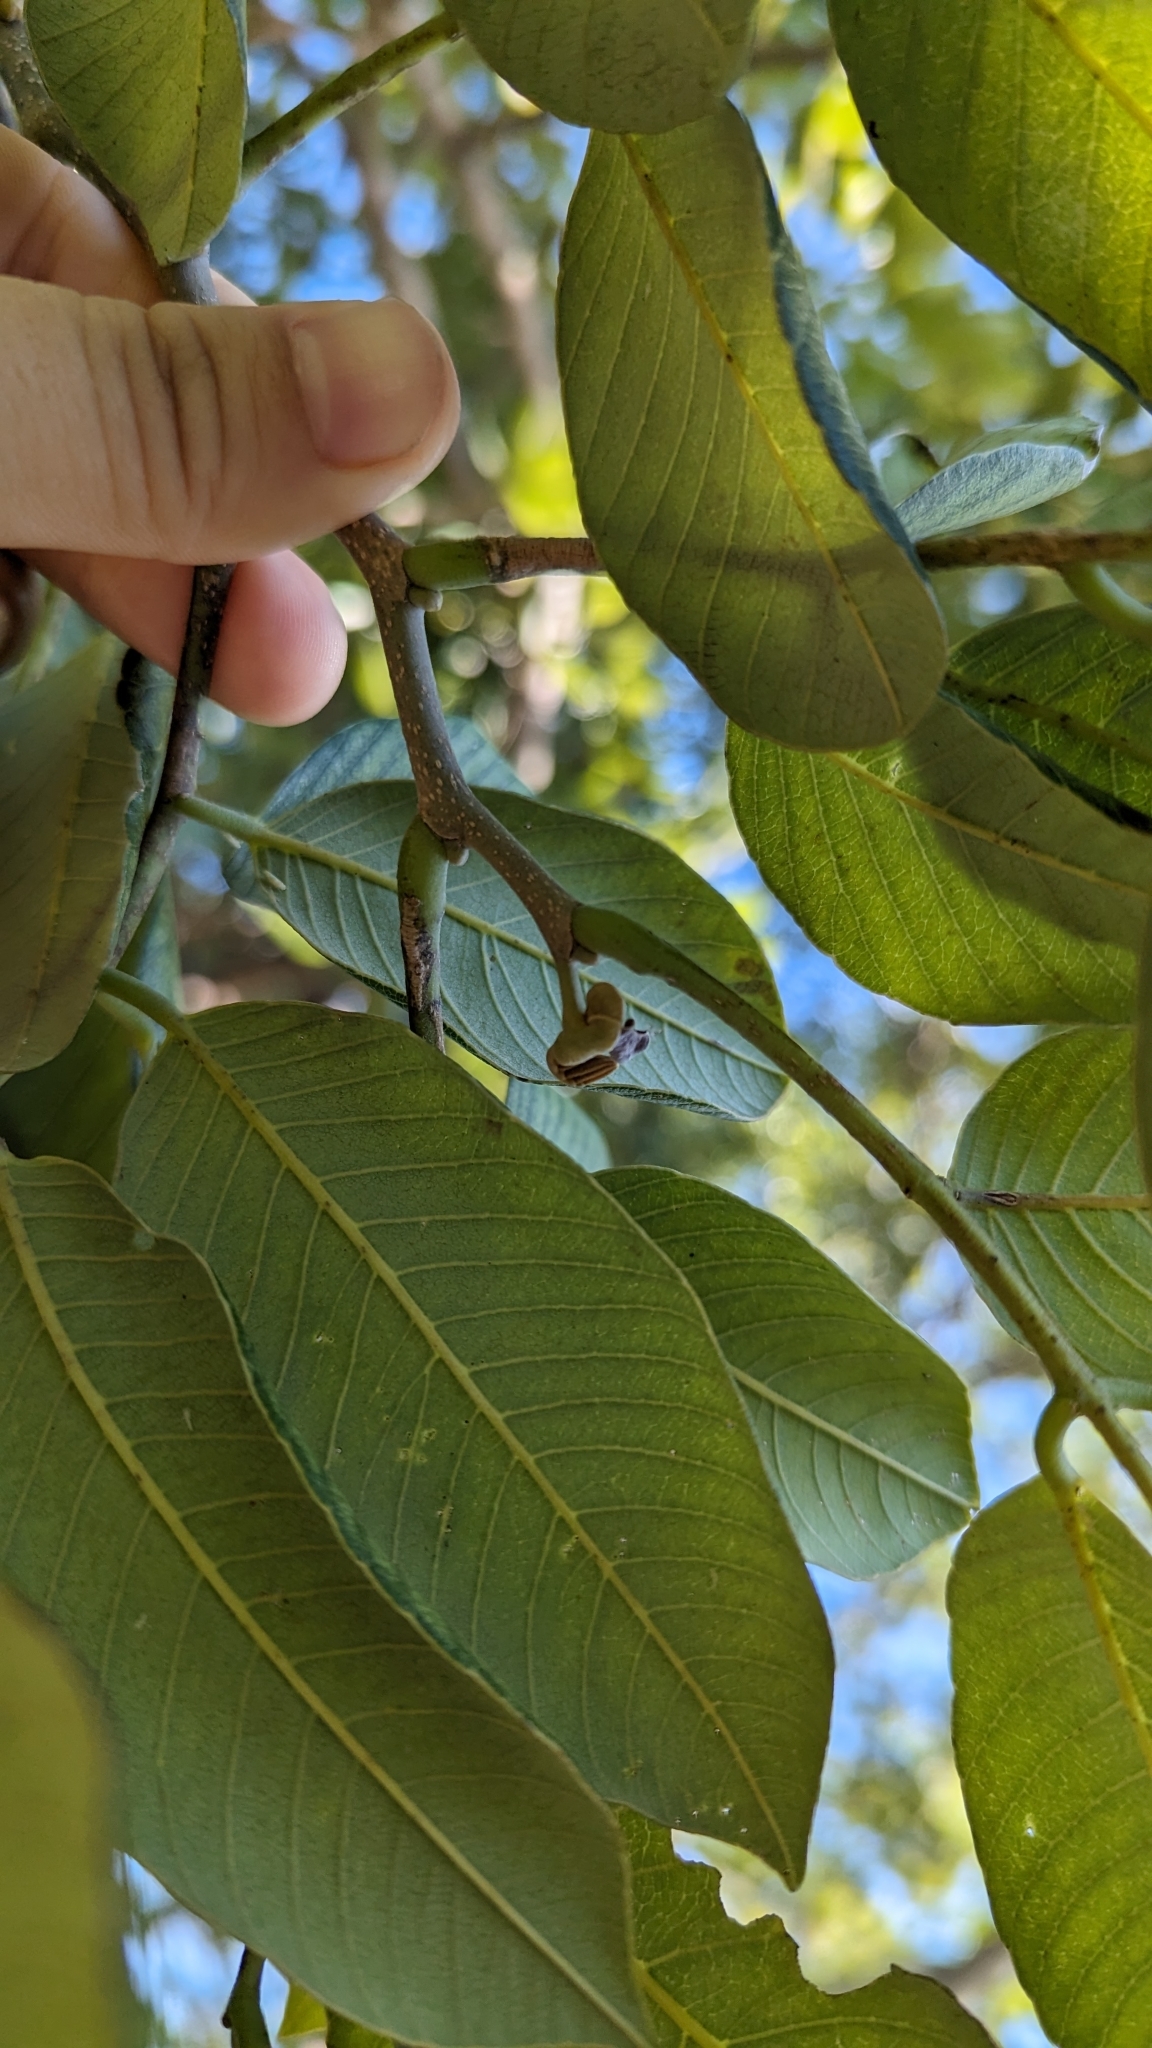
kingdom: Plantae
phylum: Tracheophyta
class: Magnoliopsida
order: Fabales
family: Fabaceae
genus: Piscidia
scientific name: Piscidia piscipula
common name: Florida fishpoison tree
